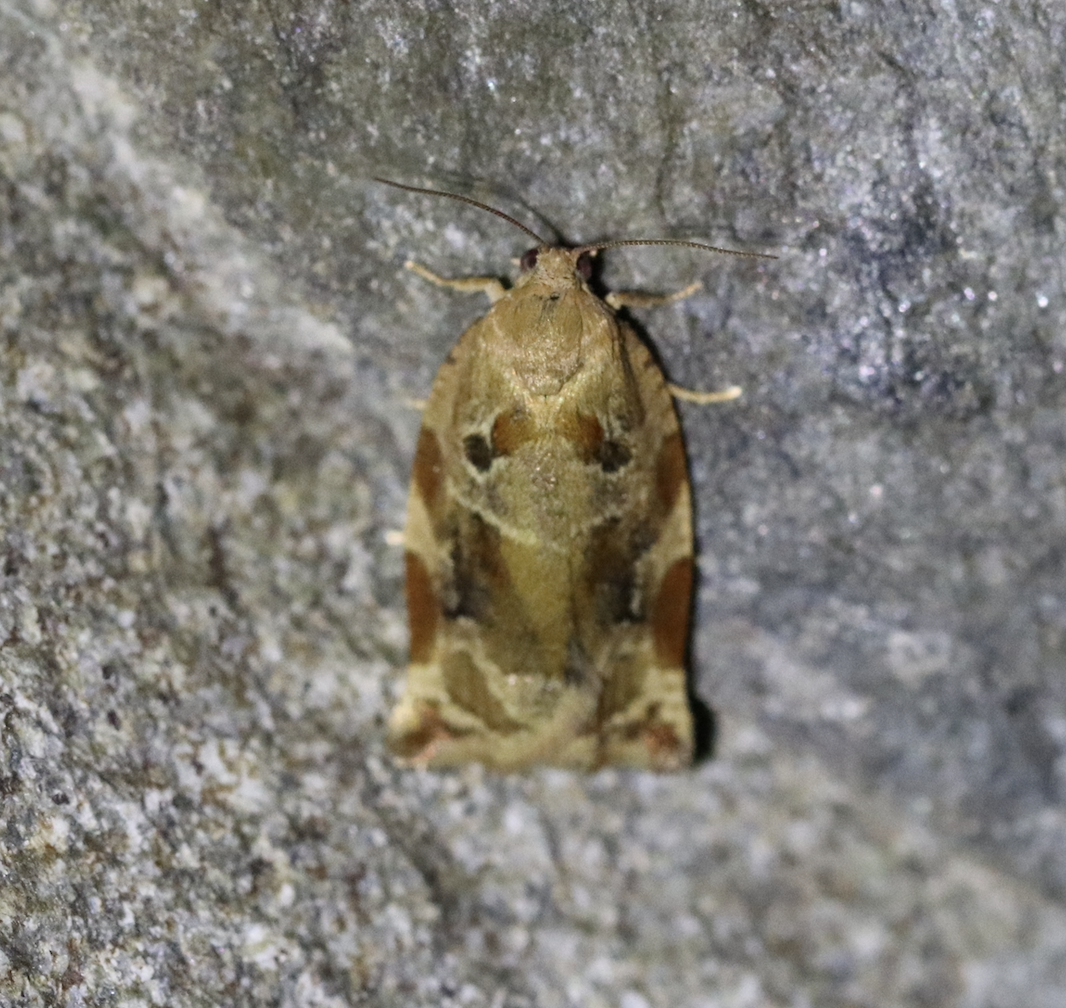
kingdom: Animalia
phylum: Arthropoda
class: Insecta
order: Lepidoptera
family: Tortricidae
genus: Archips
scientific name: Archips xylosteana
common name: Variegated golden tortrix
